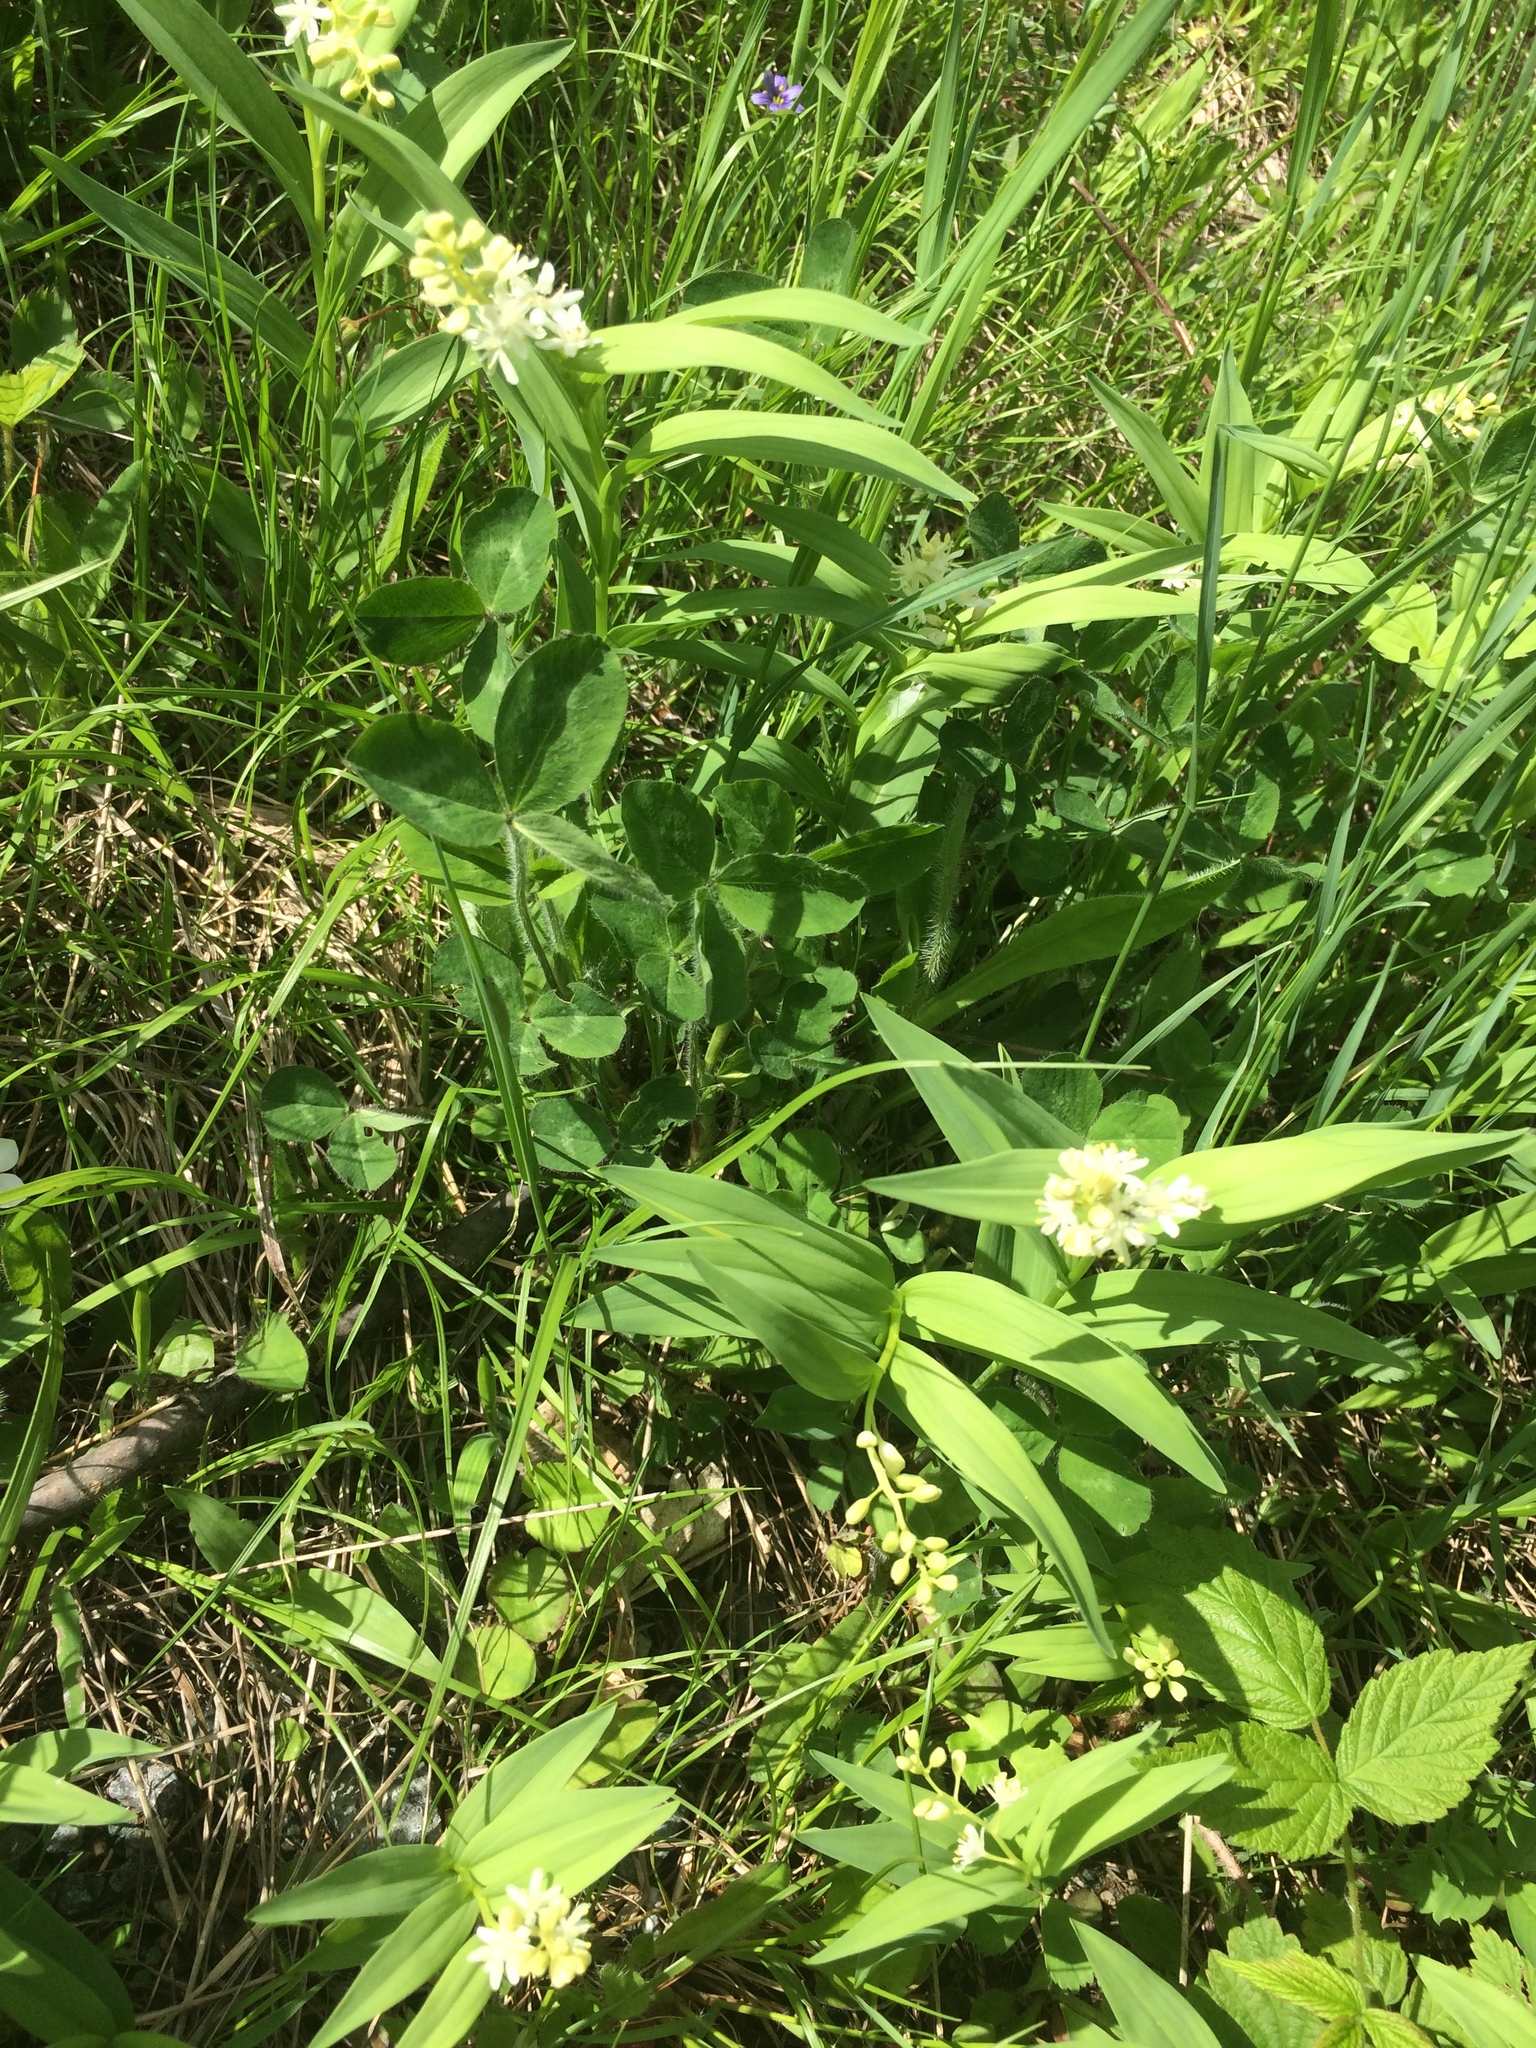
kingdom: Plantae
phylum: Tracheophyta
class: Liliopsida
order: Asparagales
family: Asparagaceae
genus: Maianthemum
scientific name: Maianthemum stellatum
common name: Little false solomon's seal
